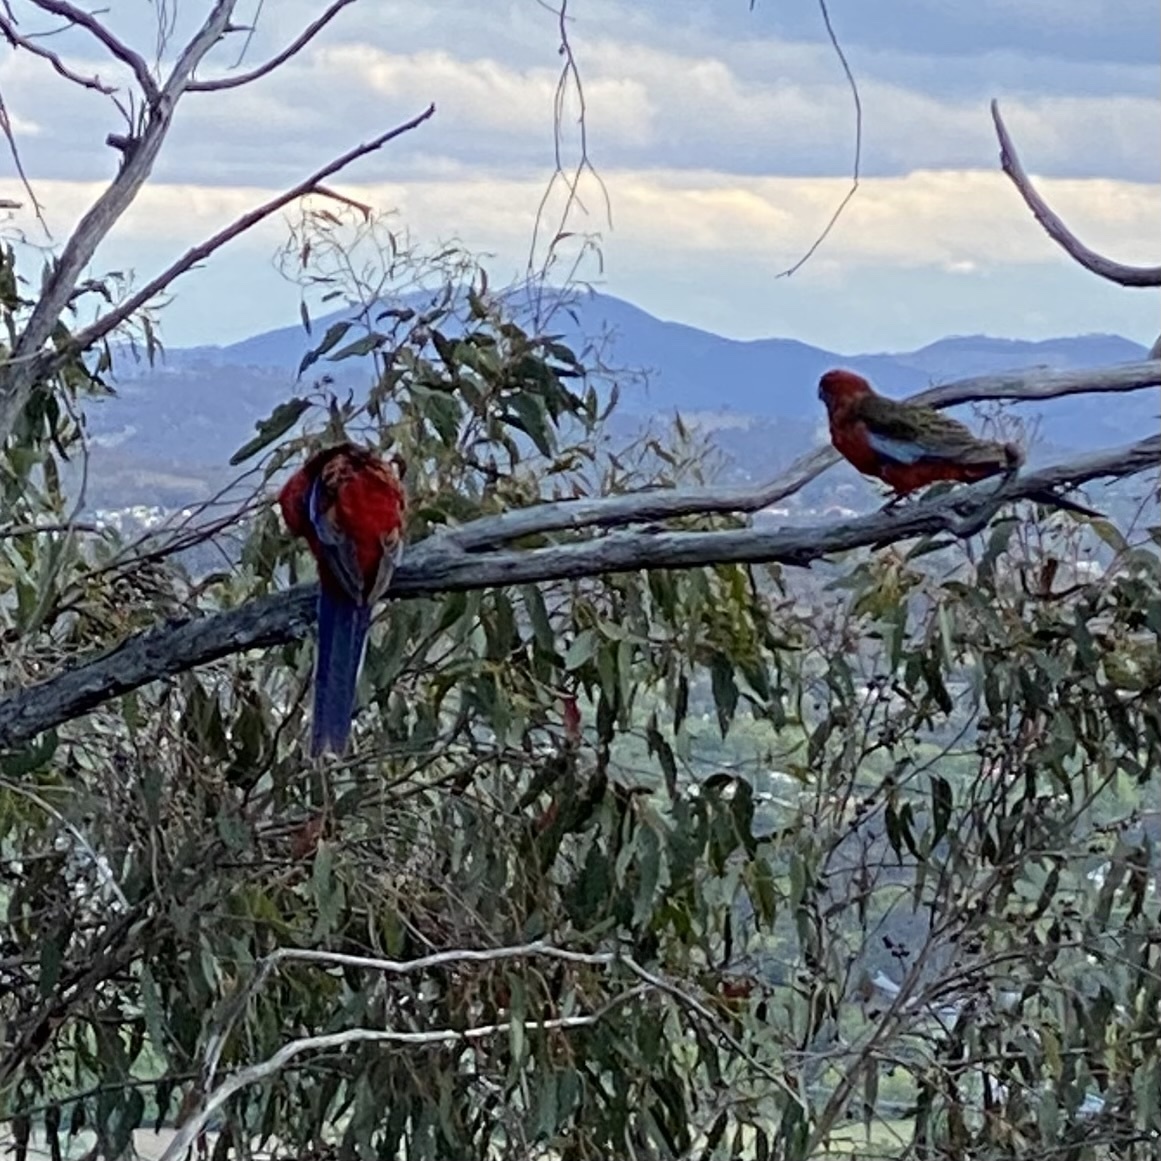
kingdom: Animalia
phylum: Chordata
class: Aves
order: Psittaciformes
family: Psittacidae
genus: Platycercus
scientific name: Platycercus elegans
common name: Crimson rosella
